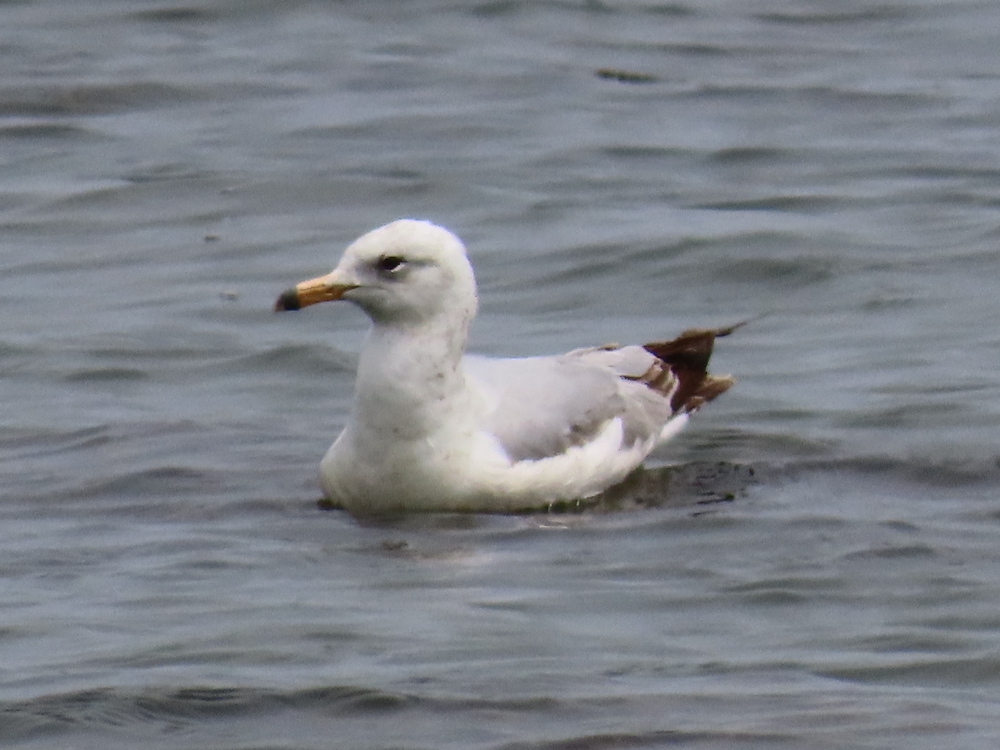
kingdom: Animalia
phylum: Chordata
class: Aves
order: Charadriiformes
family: Laridae
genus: Larus
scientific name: Larus delawarensis
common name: Ring-billed gull
